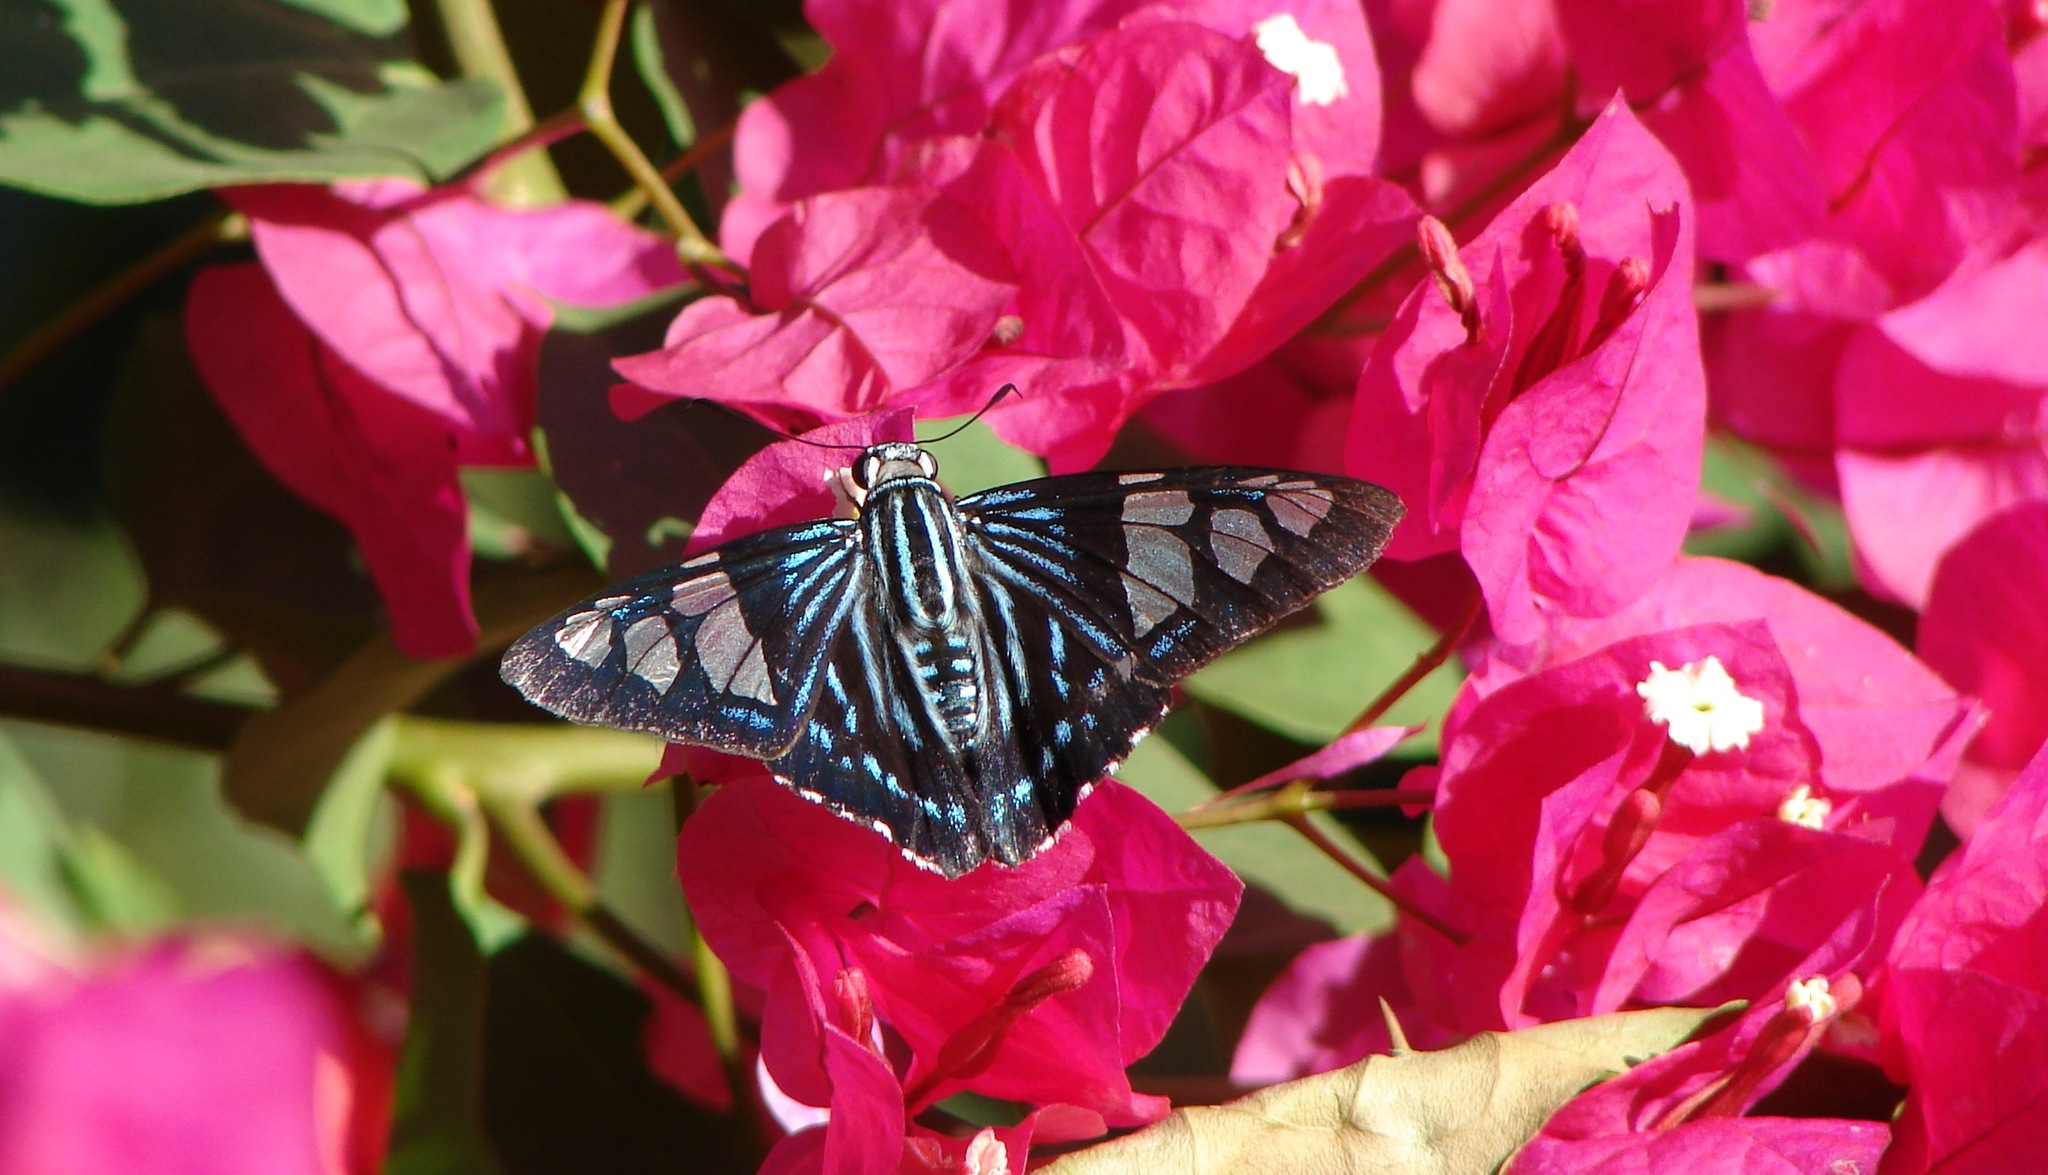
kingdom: Animalia
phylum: Arthropoda
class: Insecta
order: Lepidoptera
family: Hesperiidae
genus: Phocides
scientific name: Phocides pigmalion
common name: Mangrove skipper
